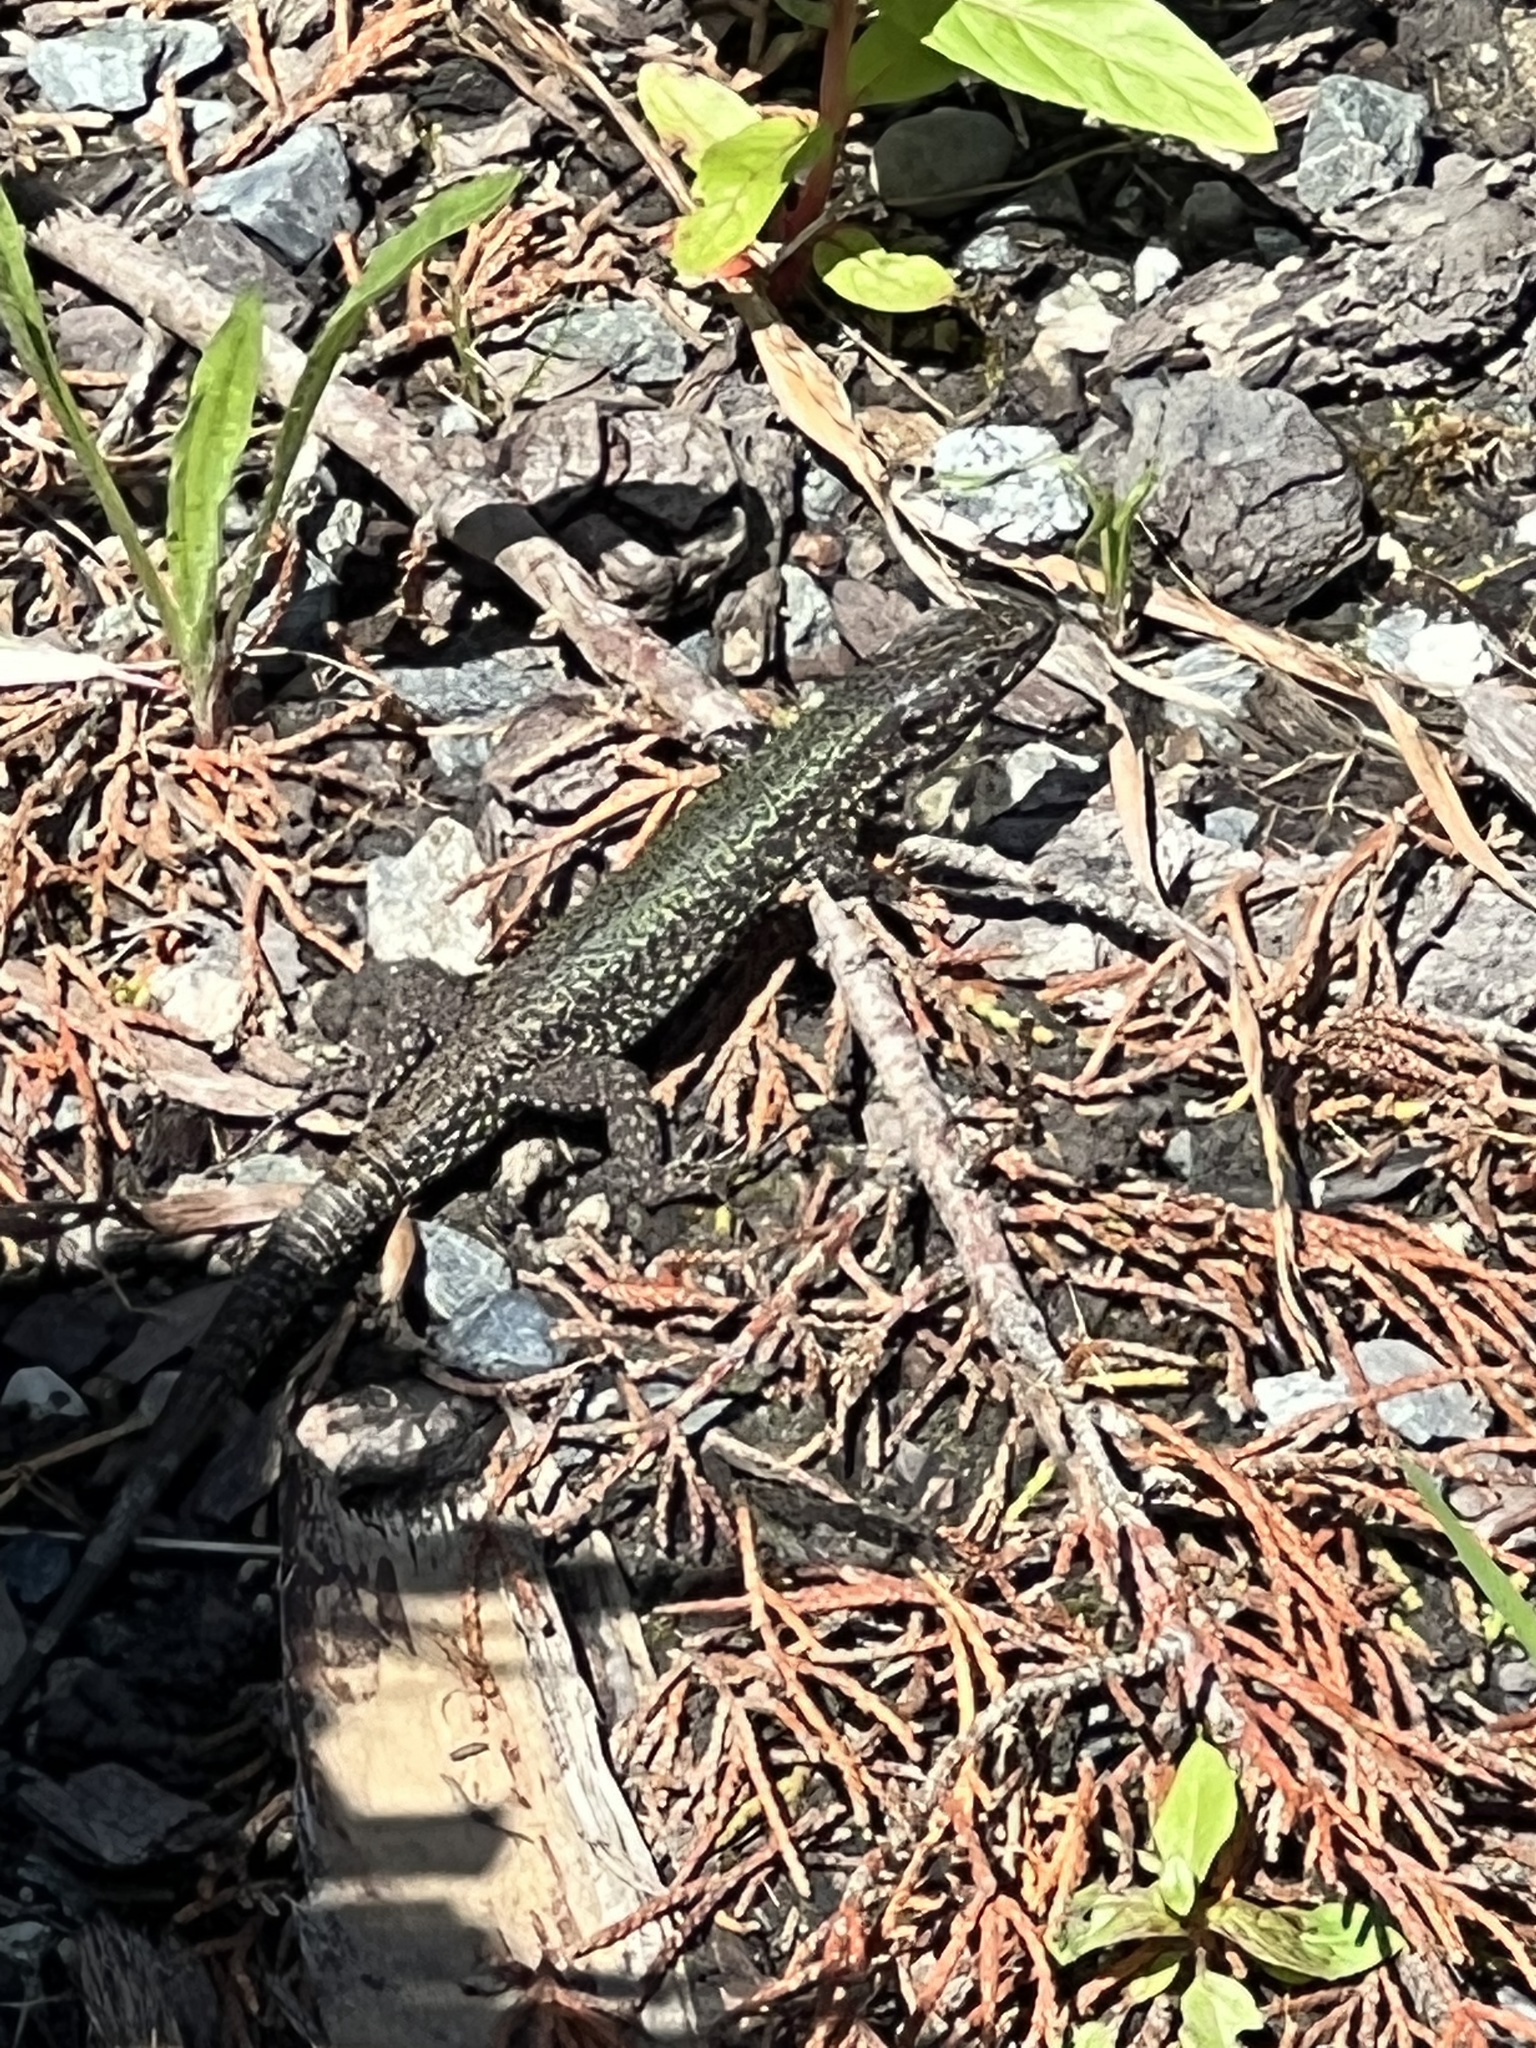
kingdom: Animalia
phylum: Chordata
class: Squamata
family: Lacertidae
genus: Podarcis
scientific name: Podarcis muralis
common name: Common wall lizard
